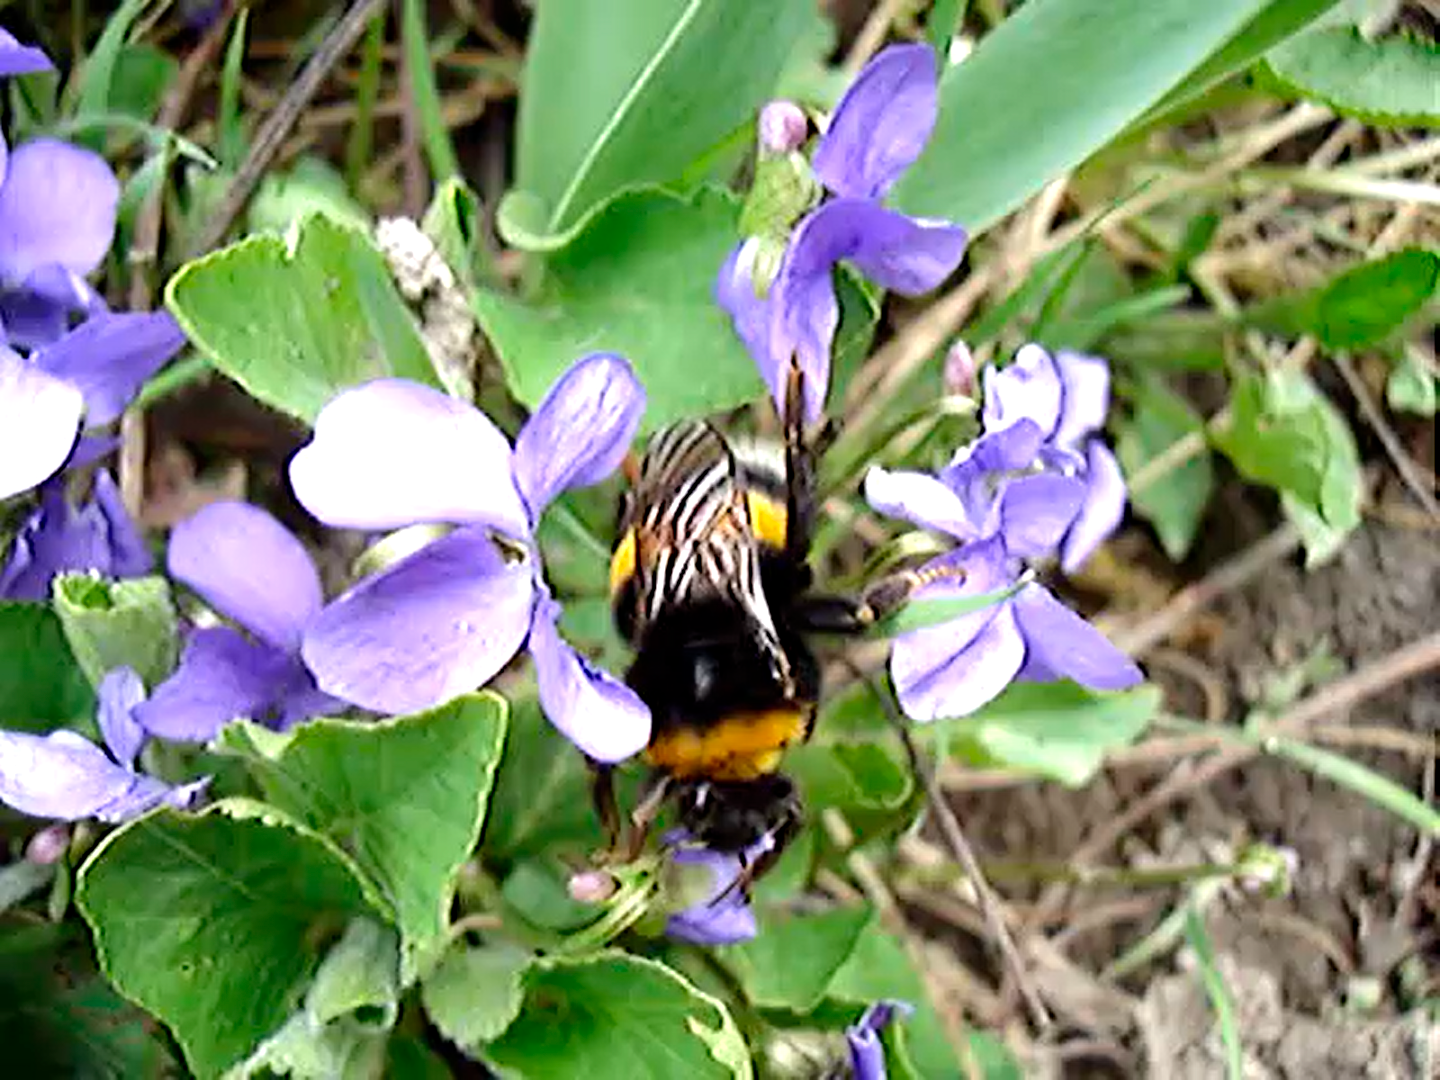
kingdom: Animalia
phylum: Arthropoda
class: Insecta
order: Hymenoptera
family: Apidae
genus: Bombus
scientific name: Bombus
